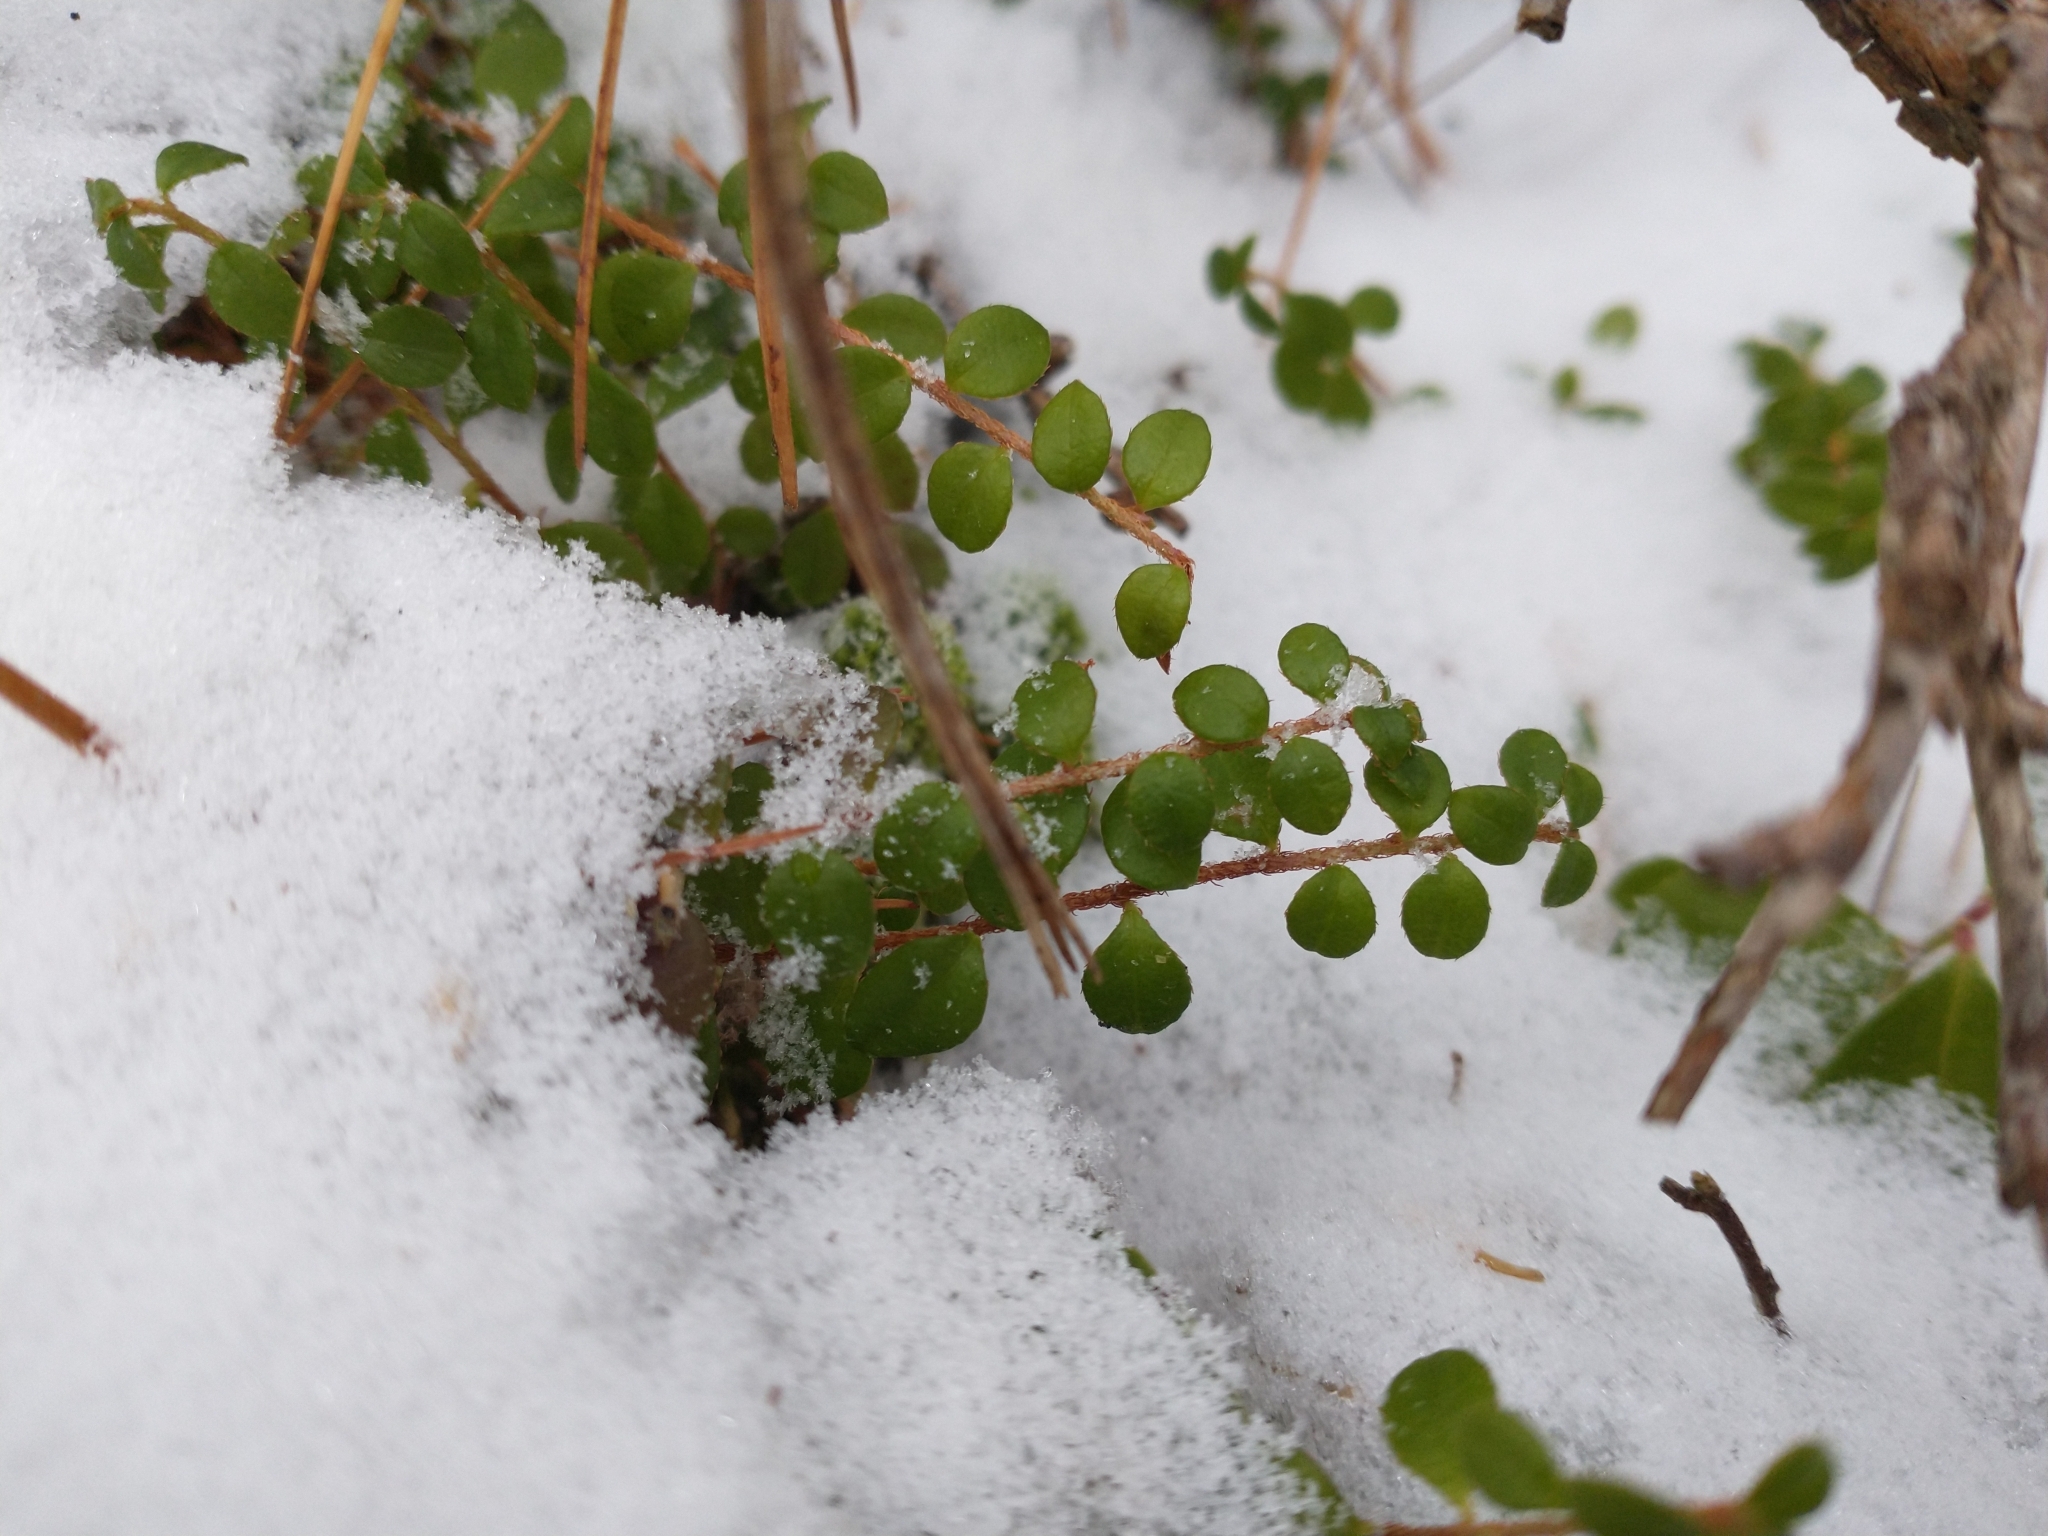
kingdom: Plantae
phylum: Tracheophyta
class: Magnoliopsida
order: Ericales
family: Ericaceae
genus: Gaultheria
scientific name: Gaultheria hispidula
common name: Cancer wintergreen
